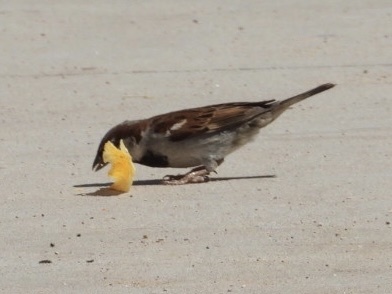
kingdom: Animalia
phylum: Chordata
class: Aves
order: Passeriformes
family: Passeridae
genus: Passer
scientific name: Passer domesticus
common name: House sparrow
